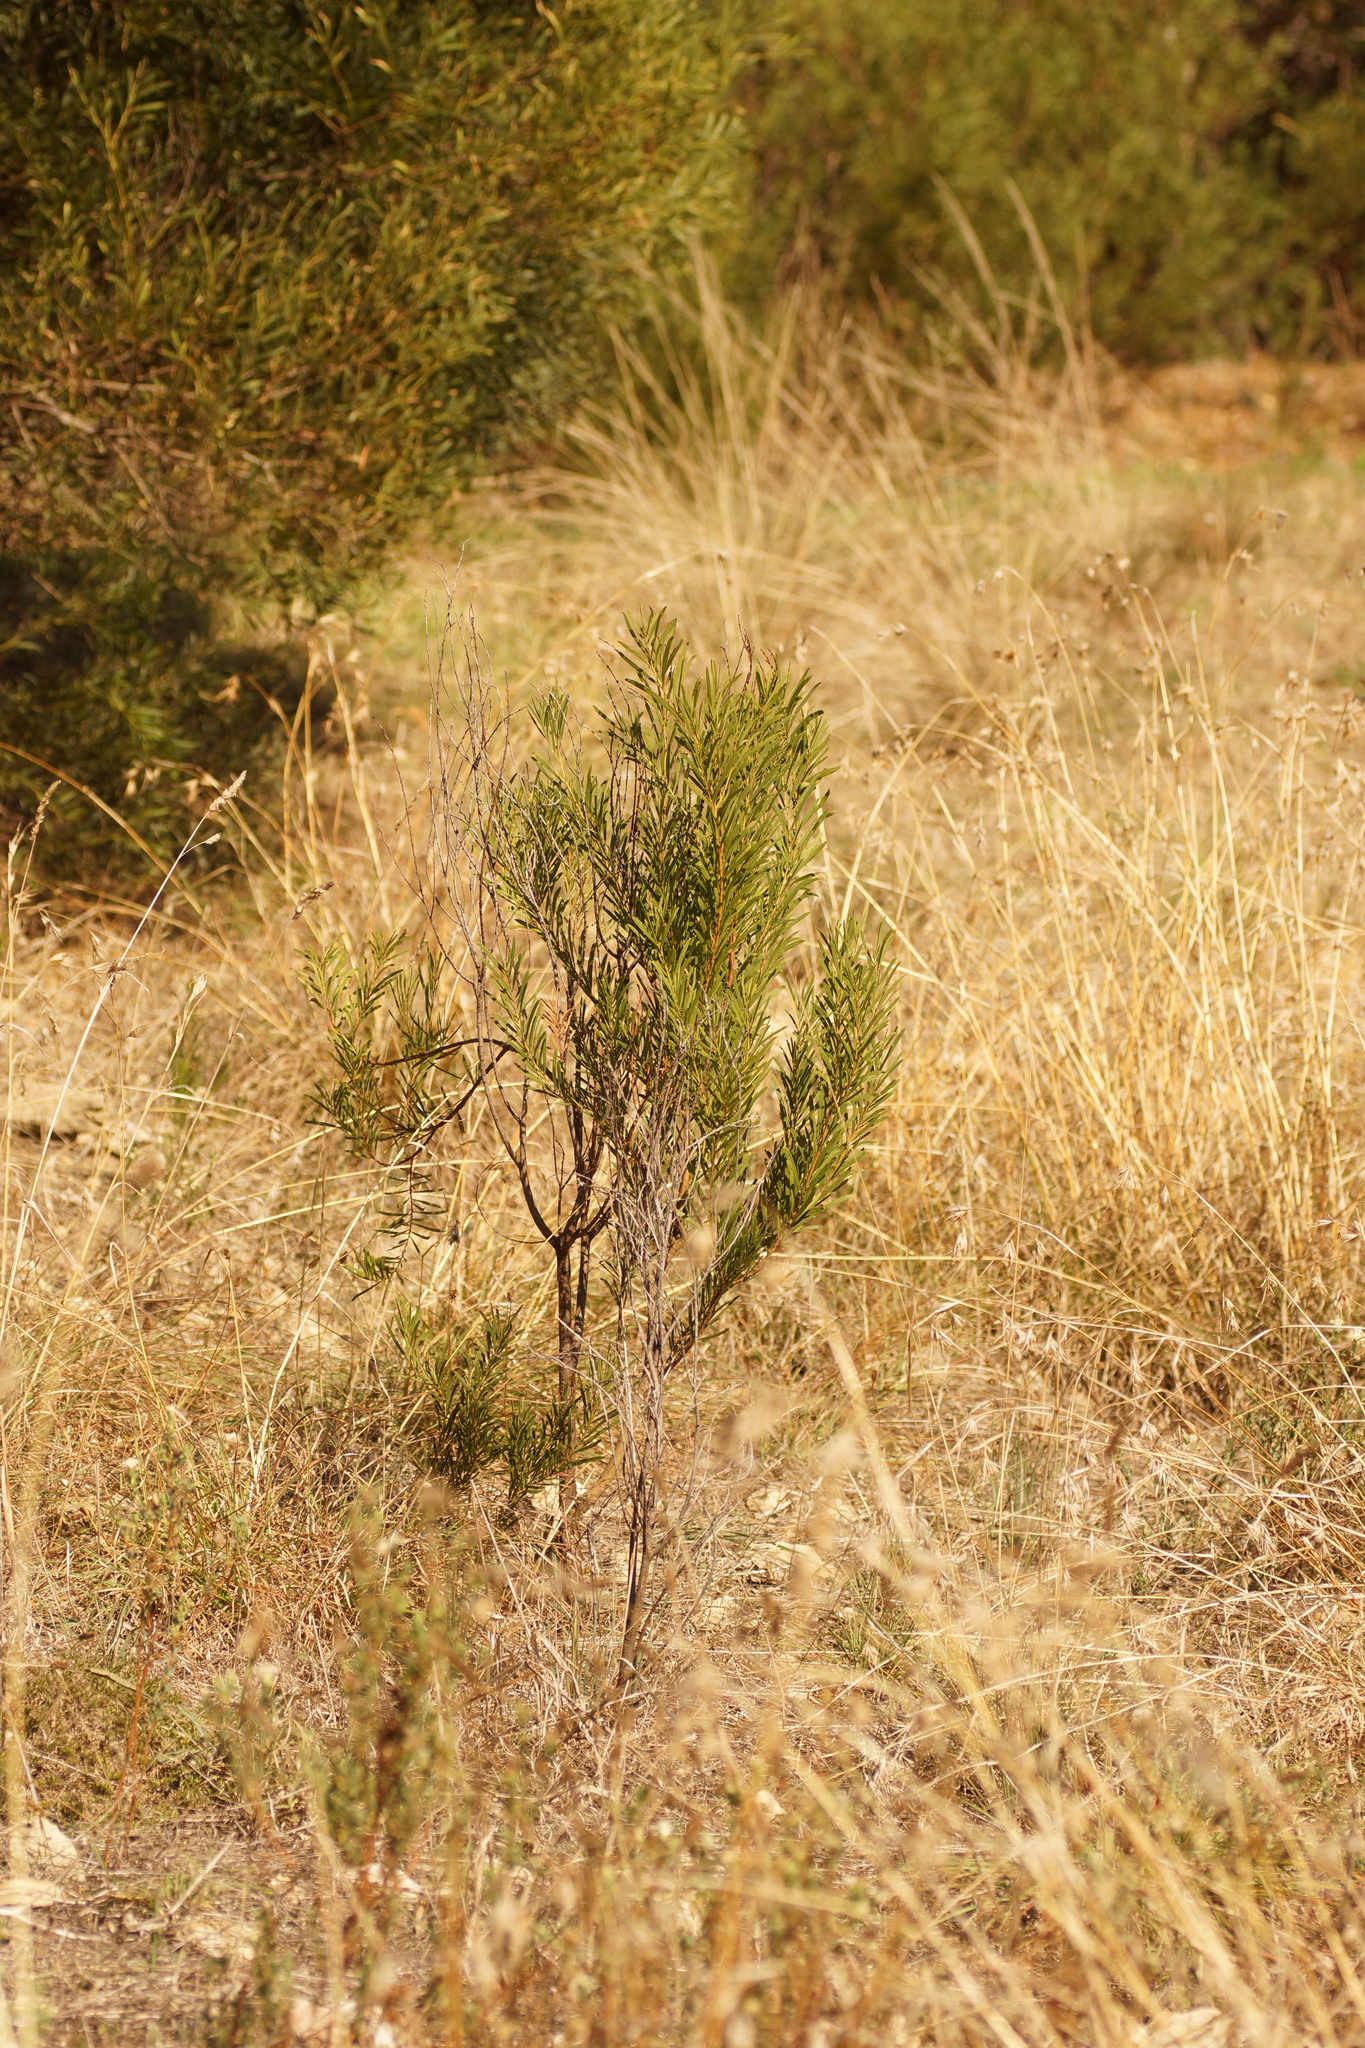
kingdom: Plantae
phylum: Tracheophyta
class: Magnoliopsida
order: Fabales
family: Fabaceae
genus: Acacia
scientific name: Acacia uncifolia
